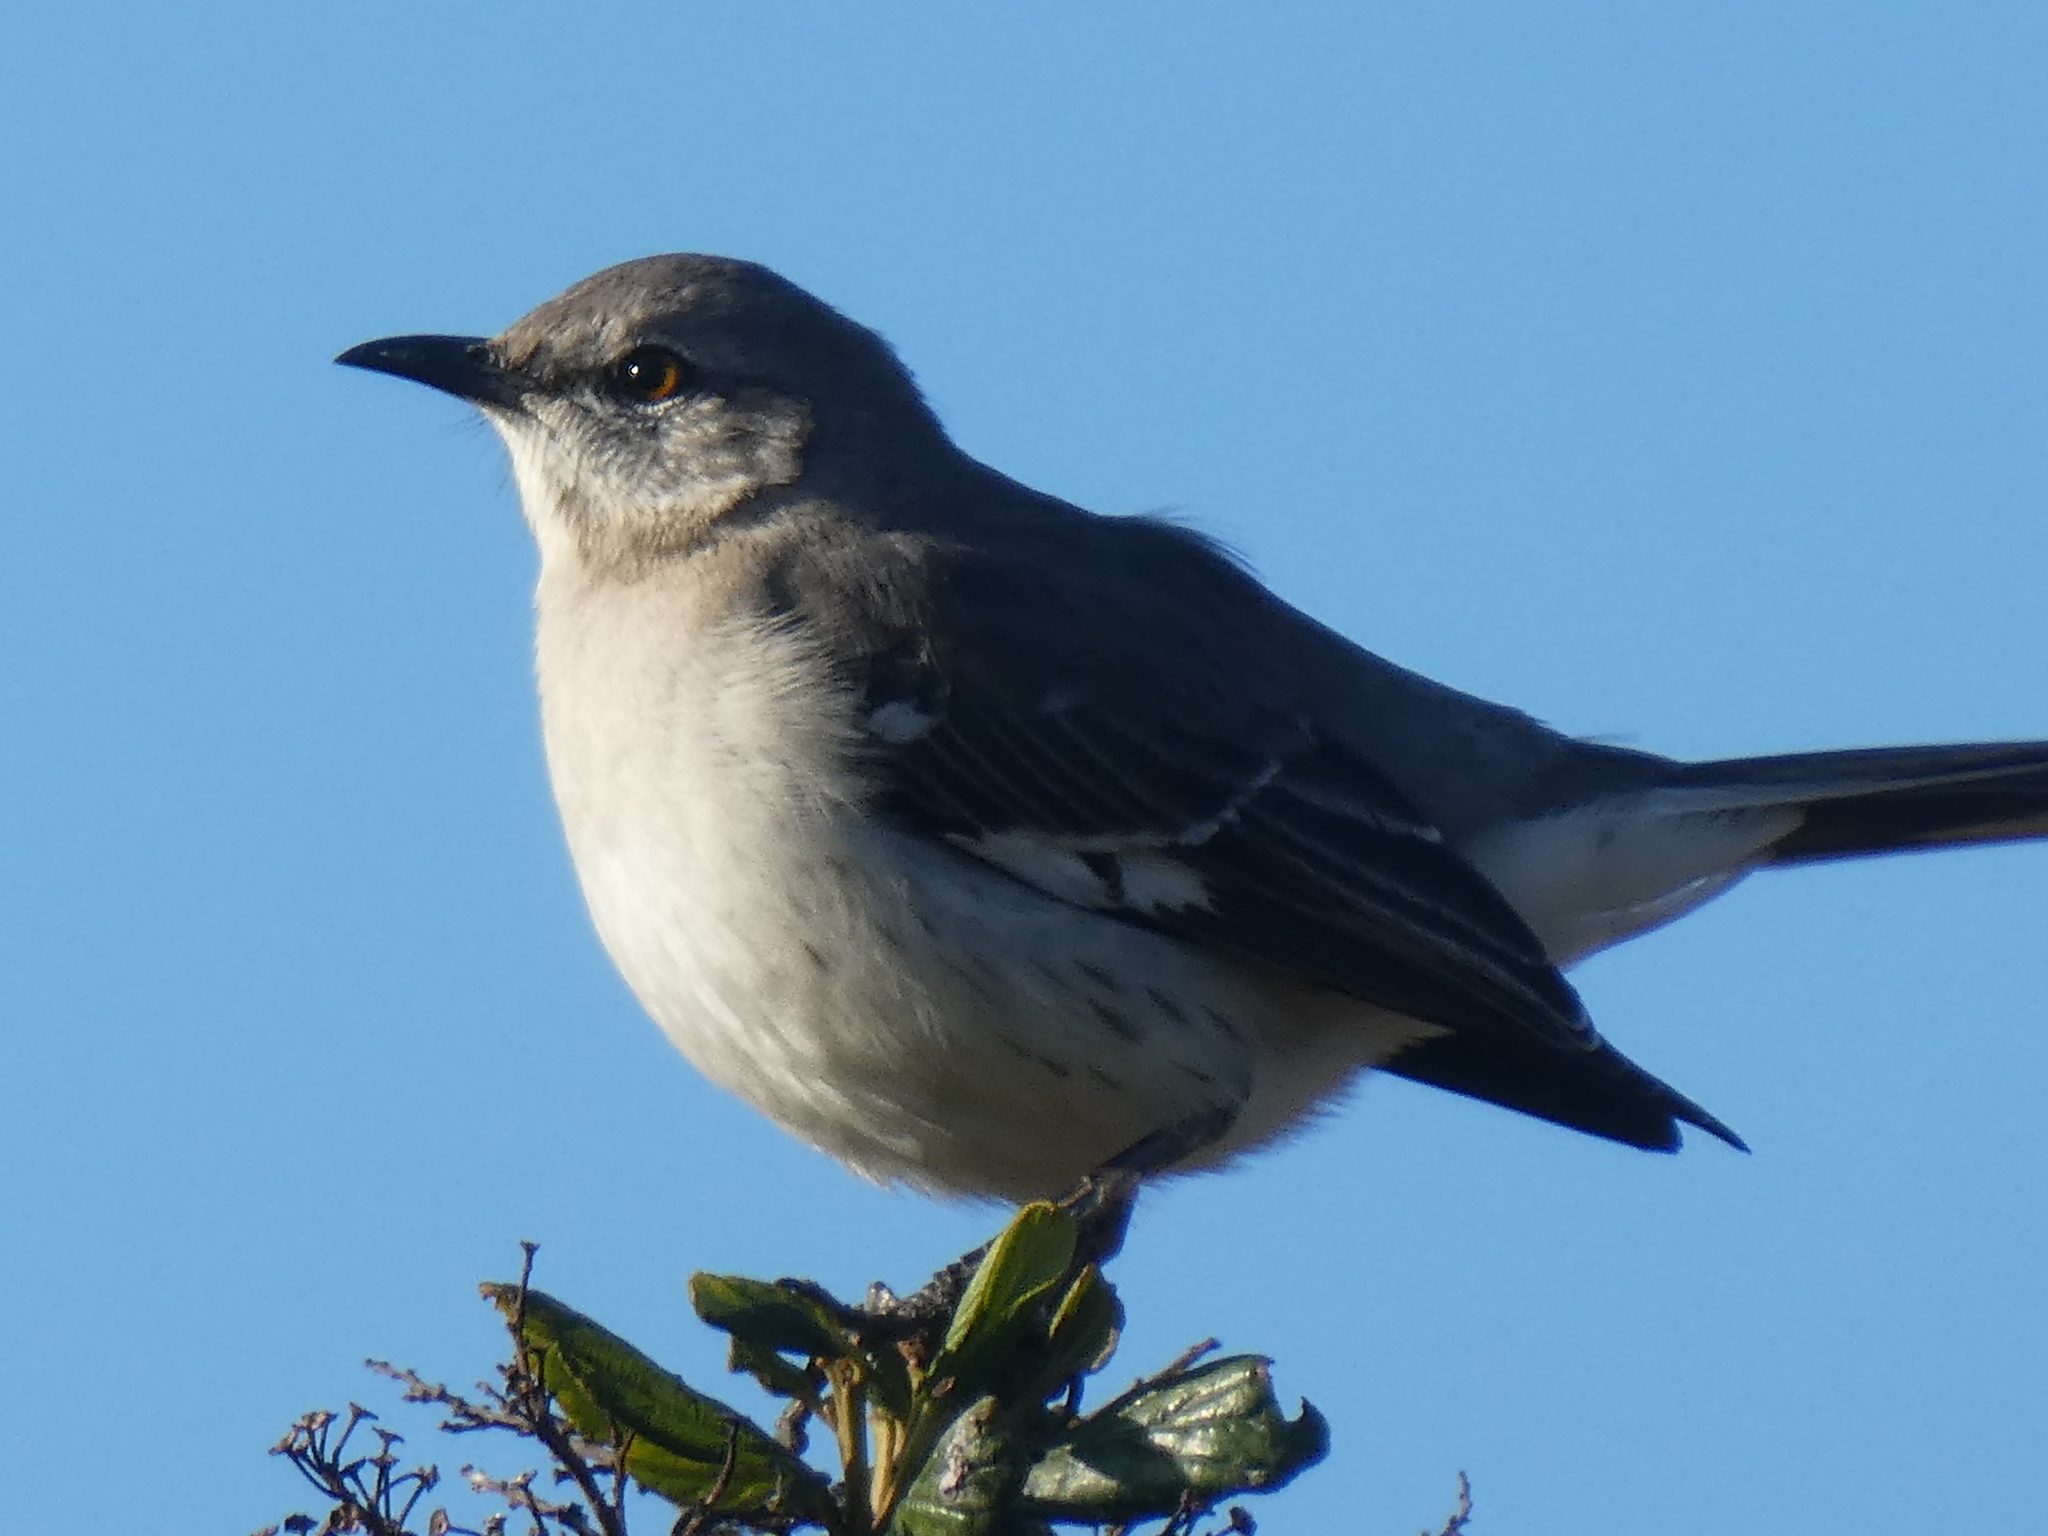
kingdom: Animalia
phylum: Chordata
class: Aves
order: Passeriformes
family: Mimidae
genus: Mimus
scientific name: Mimus polyglottos
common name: Northern mockingbird
